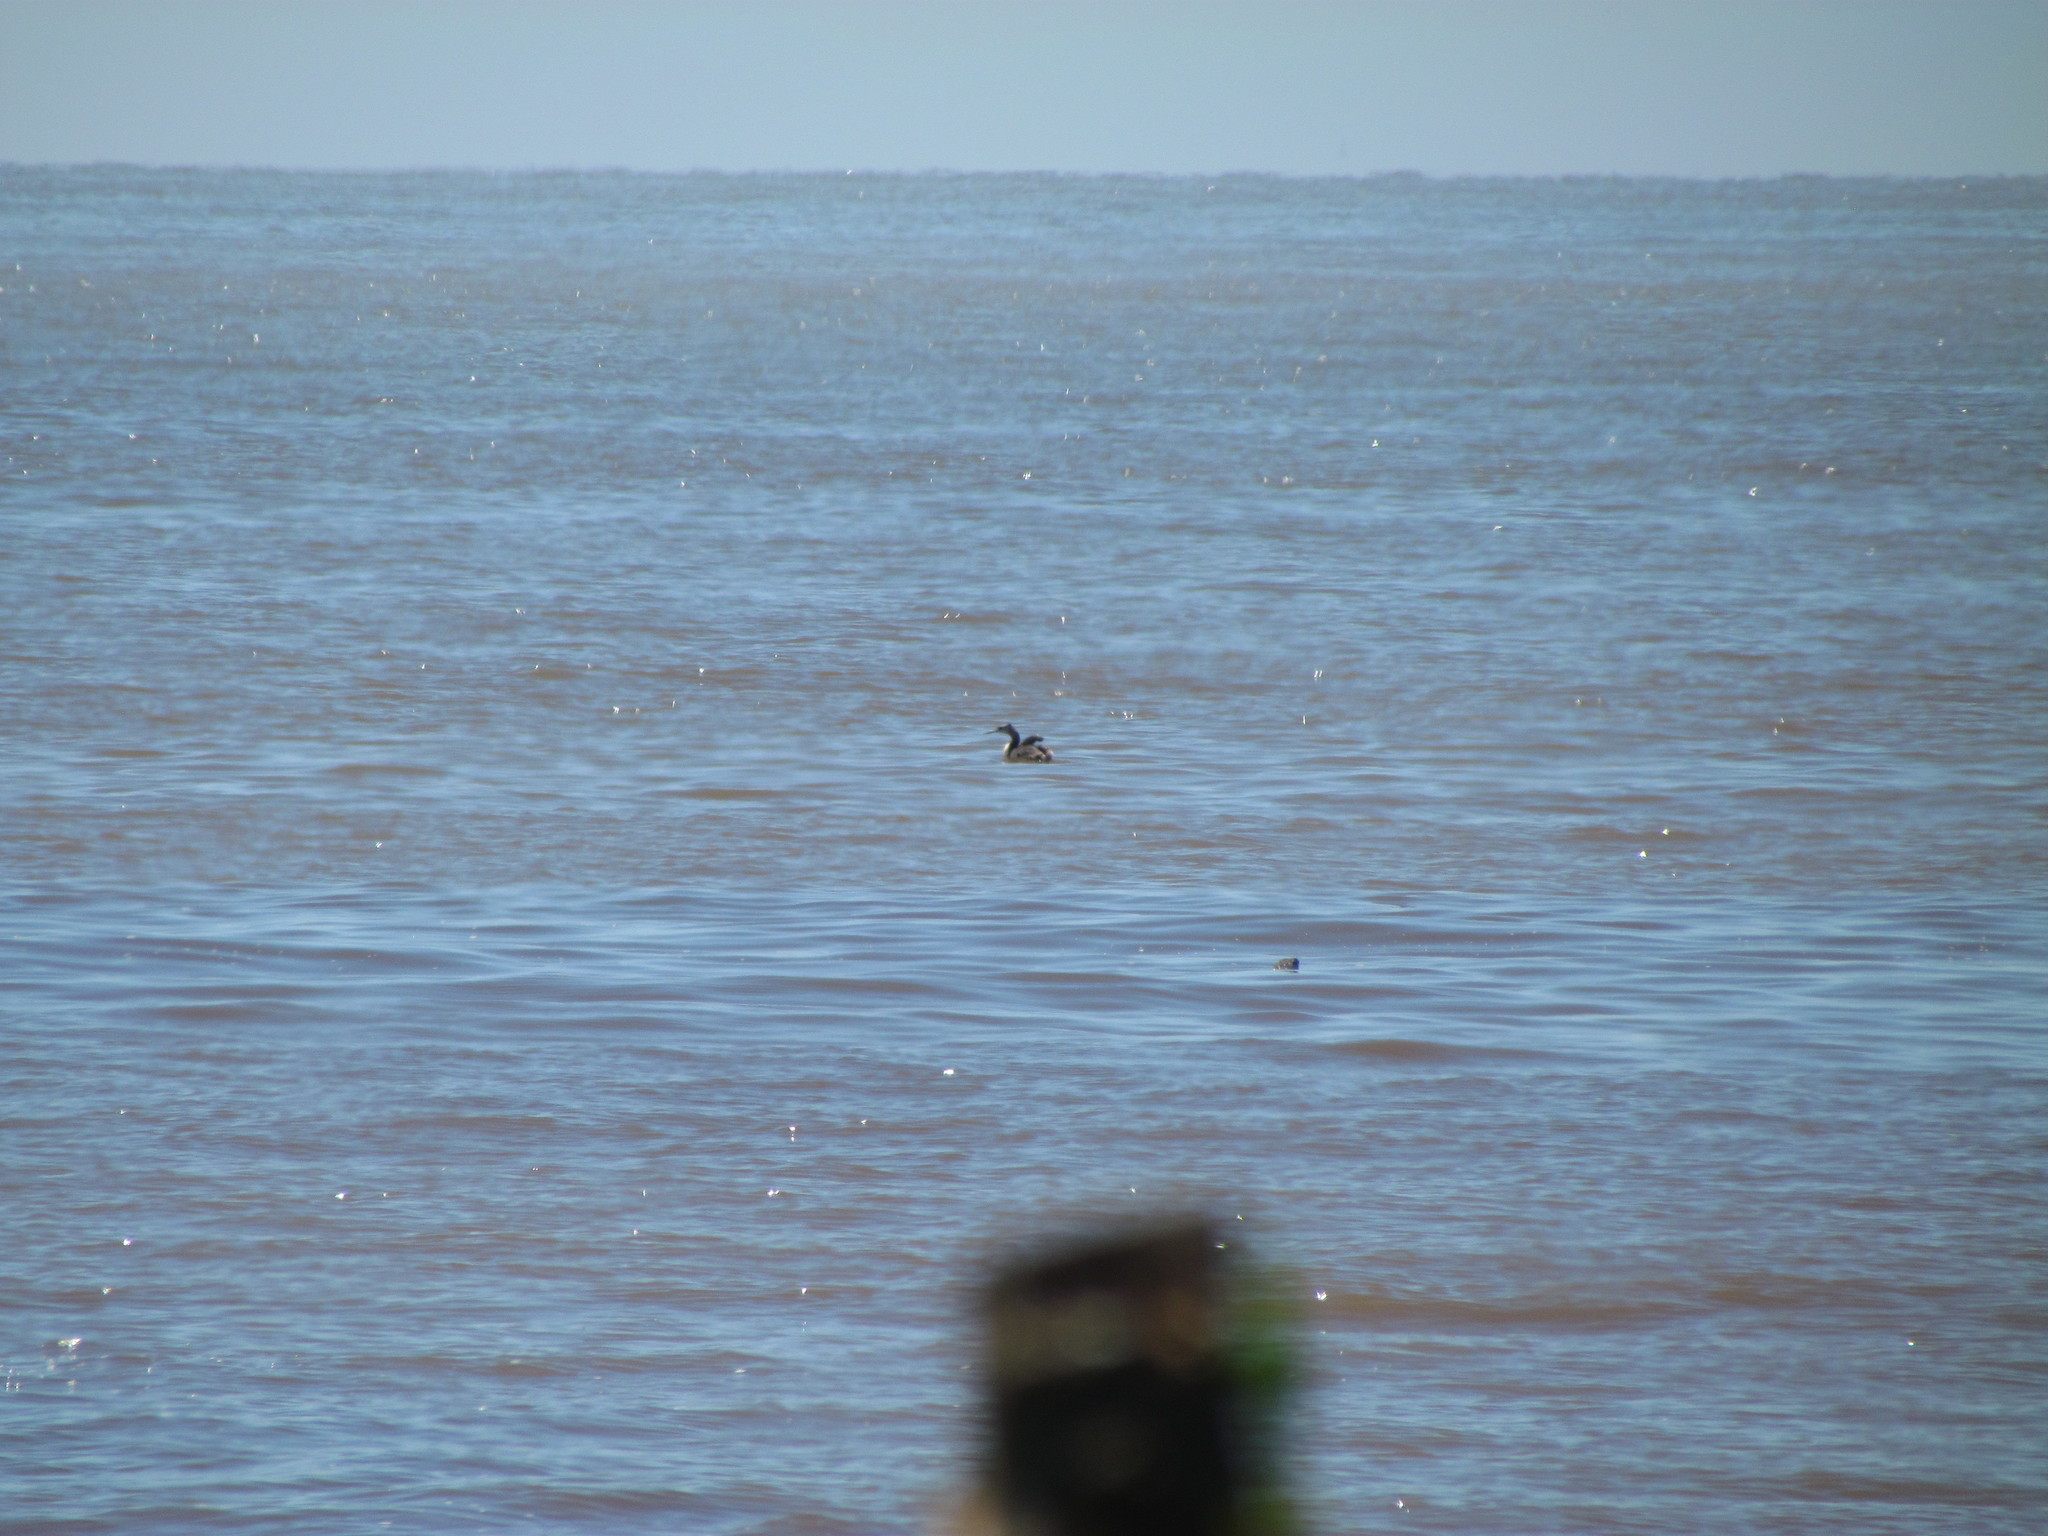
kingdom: Animalia
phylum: Chordata
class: Aves
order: Podicipediformes
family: Podicipedidae
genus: Podiceps
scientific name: Podiceps major
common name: Great grebe
